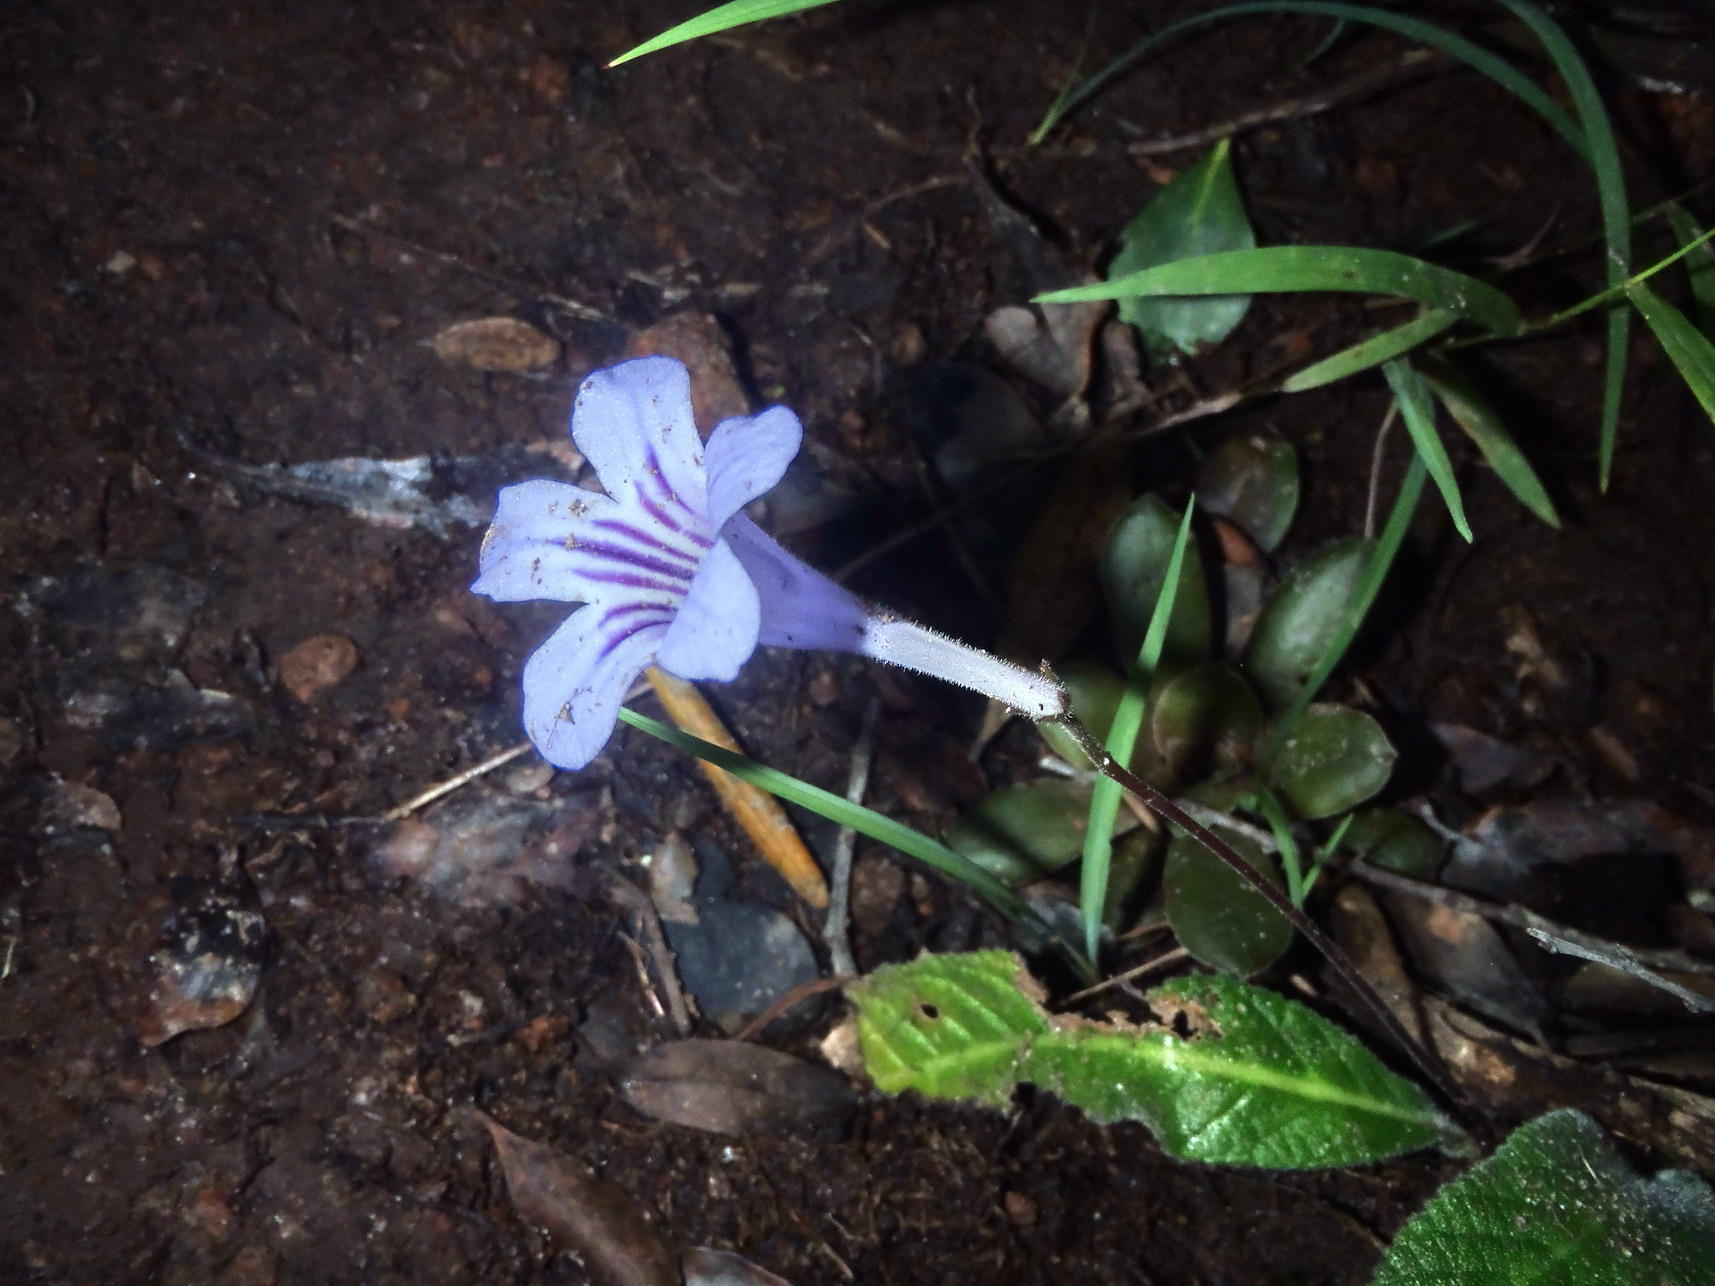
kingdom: Plantae
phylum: Tracheophyta
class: Magnoliopsida
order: Lamiales
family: Gesneriaceae
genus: Streptocarpus
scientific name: Streptocarpus rexii
